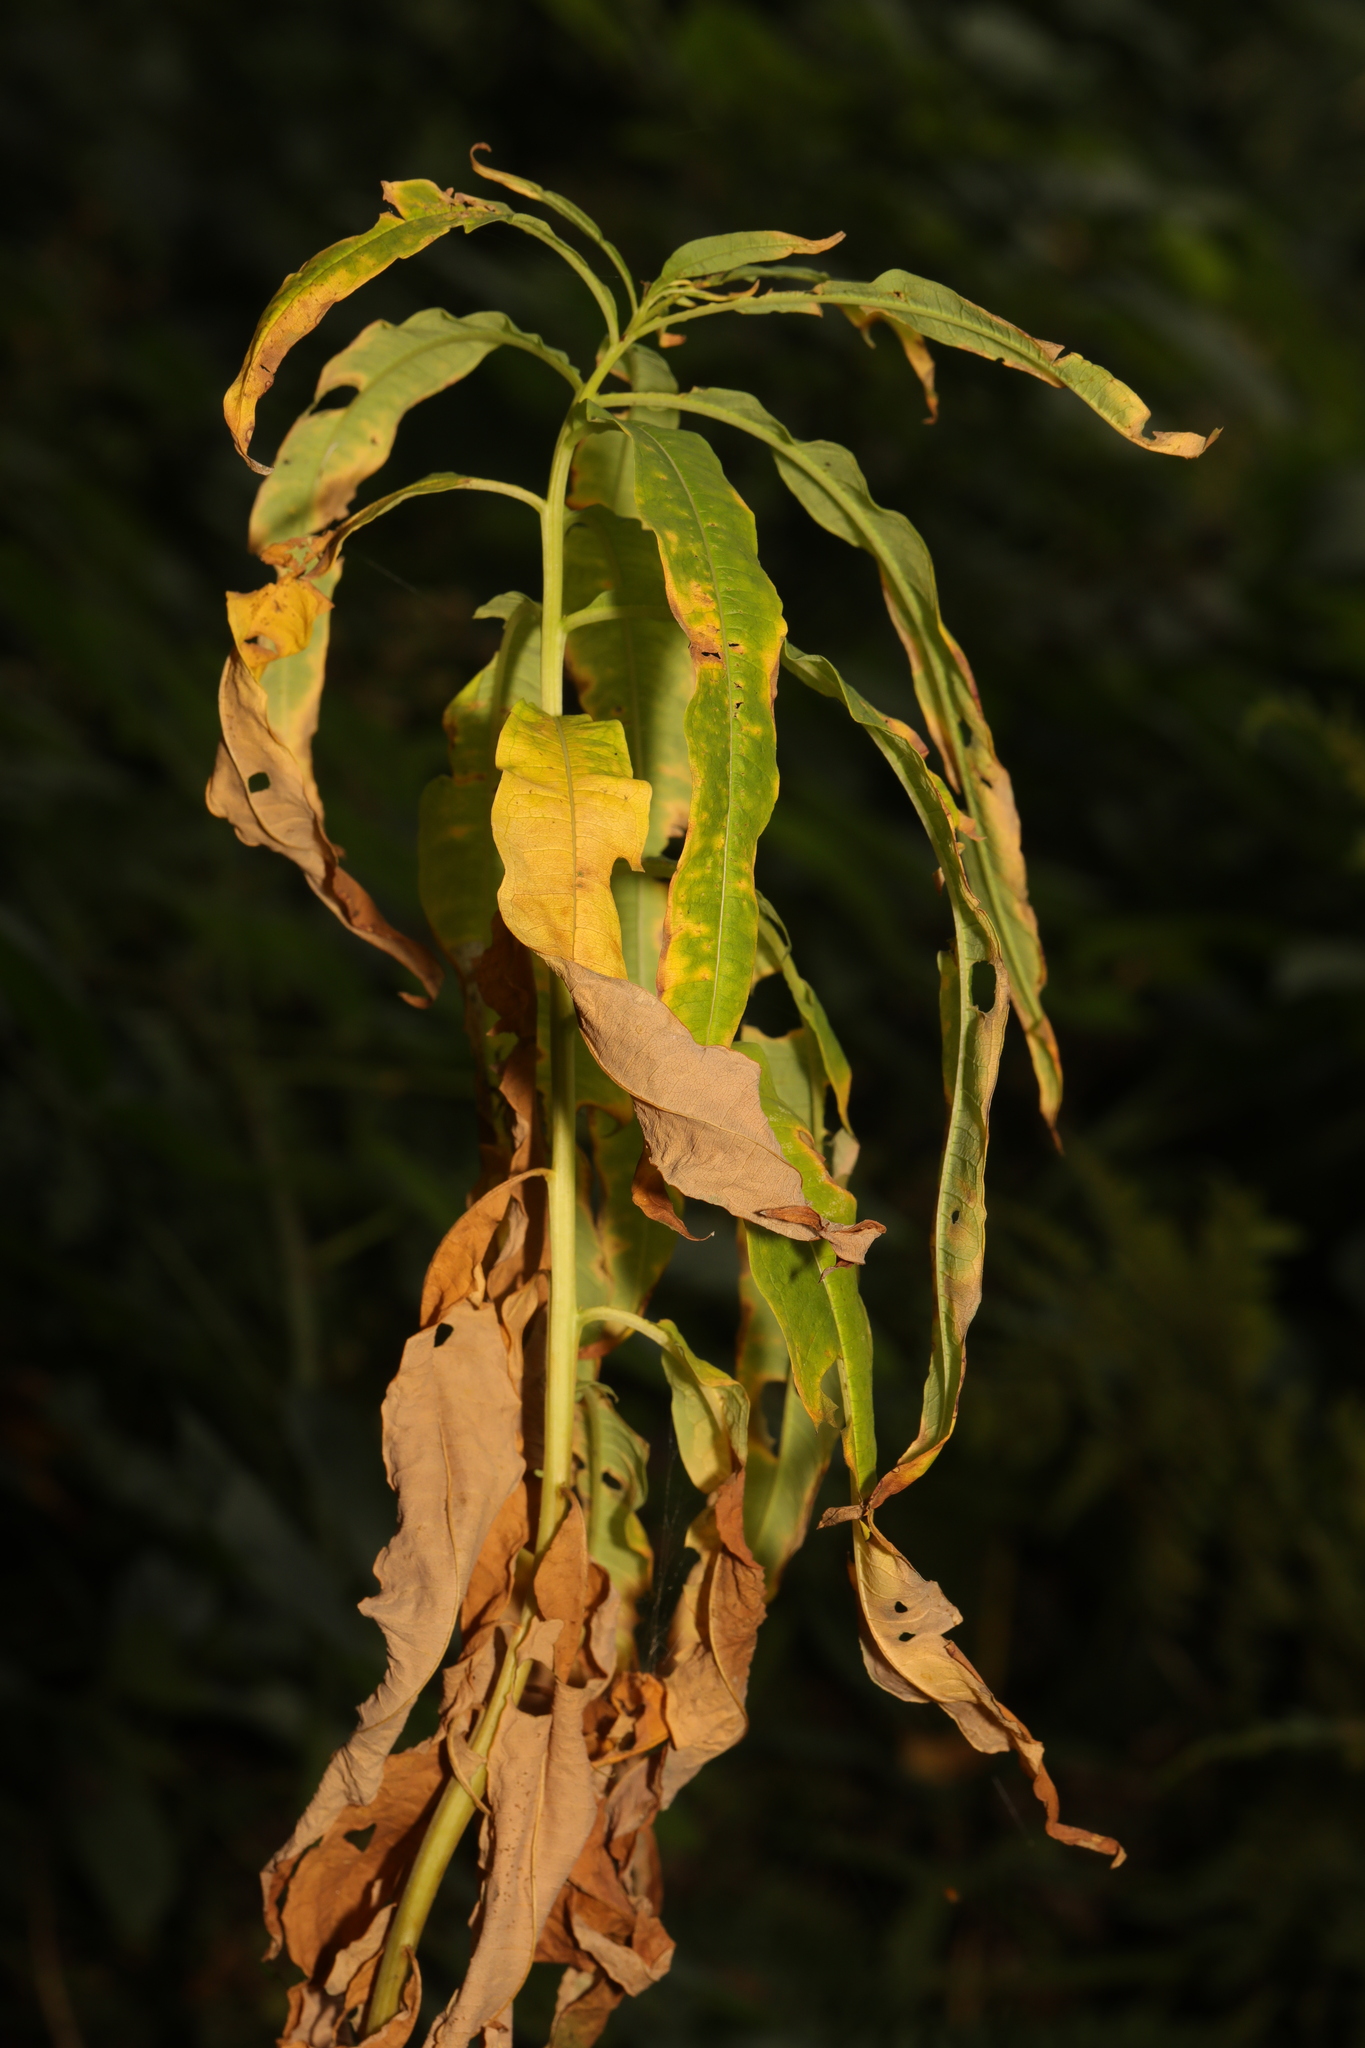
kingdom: Plantae
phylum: Tracheophyta
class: Magnoliopsida
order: Myrtales
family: Onagraceae
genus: Chamaenerion
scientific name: Chamaenerion angustifolium
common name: Fireweed
